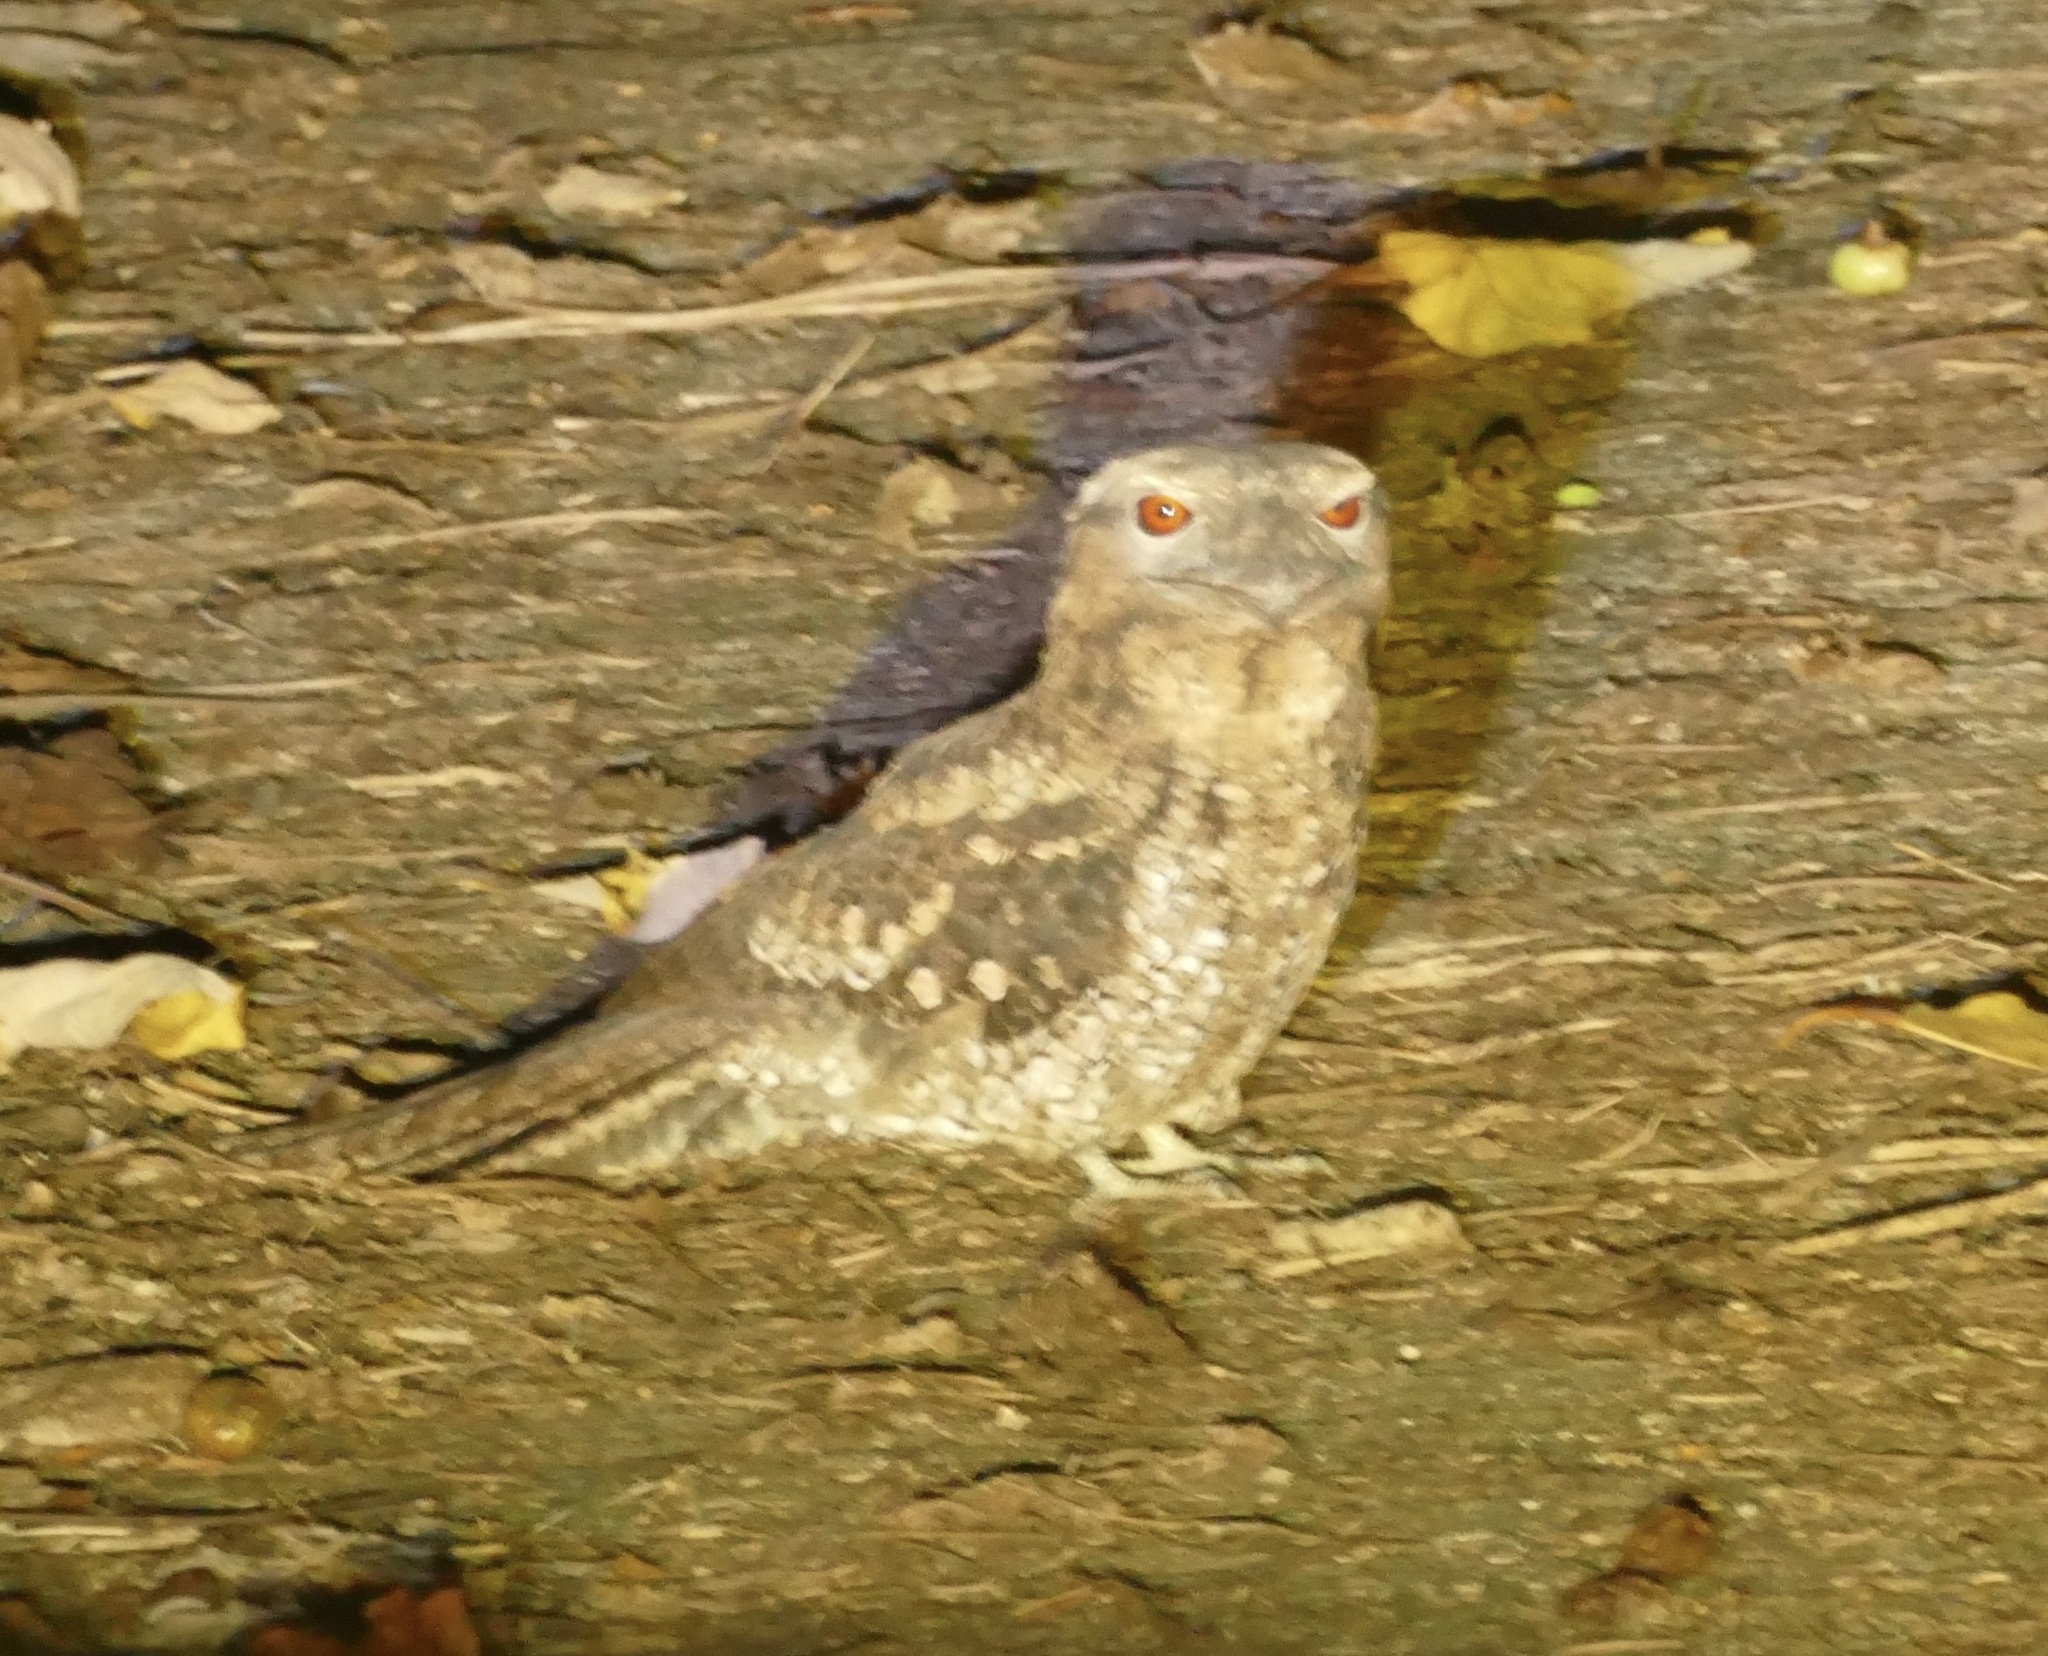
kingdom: Animalia
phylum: Chordata
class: Aves
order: Caprimulgiformes
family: Podargidae
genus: Podargus
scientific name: Podargus papuensis
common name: Papuan frogmouth
